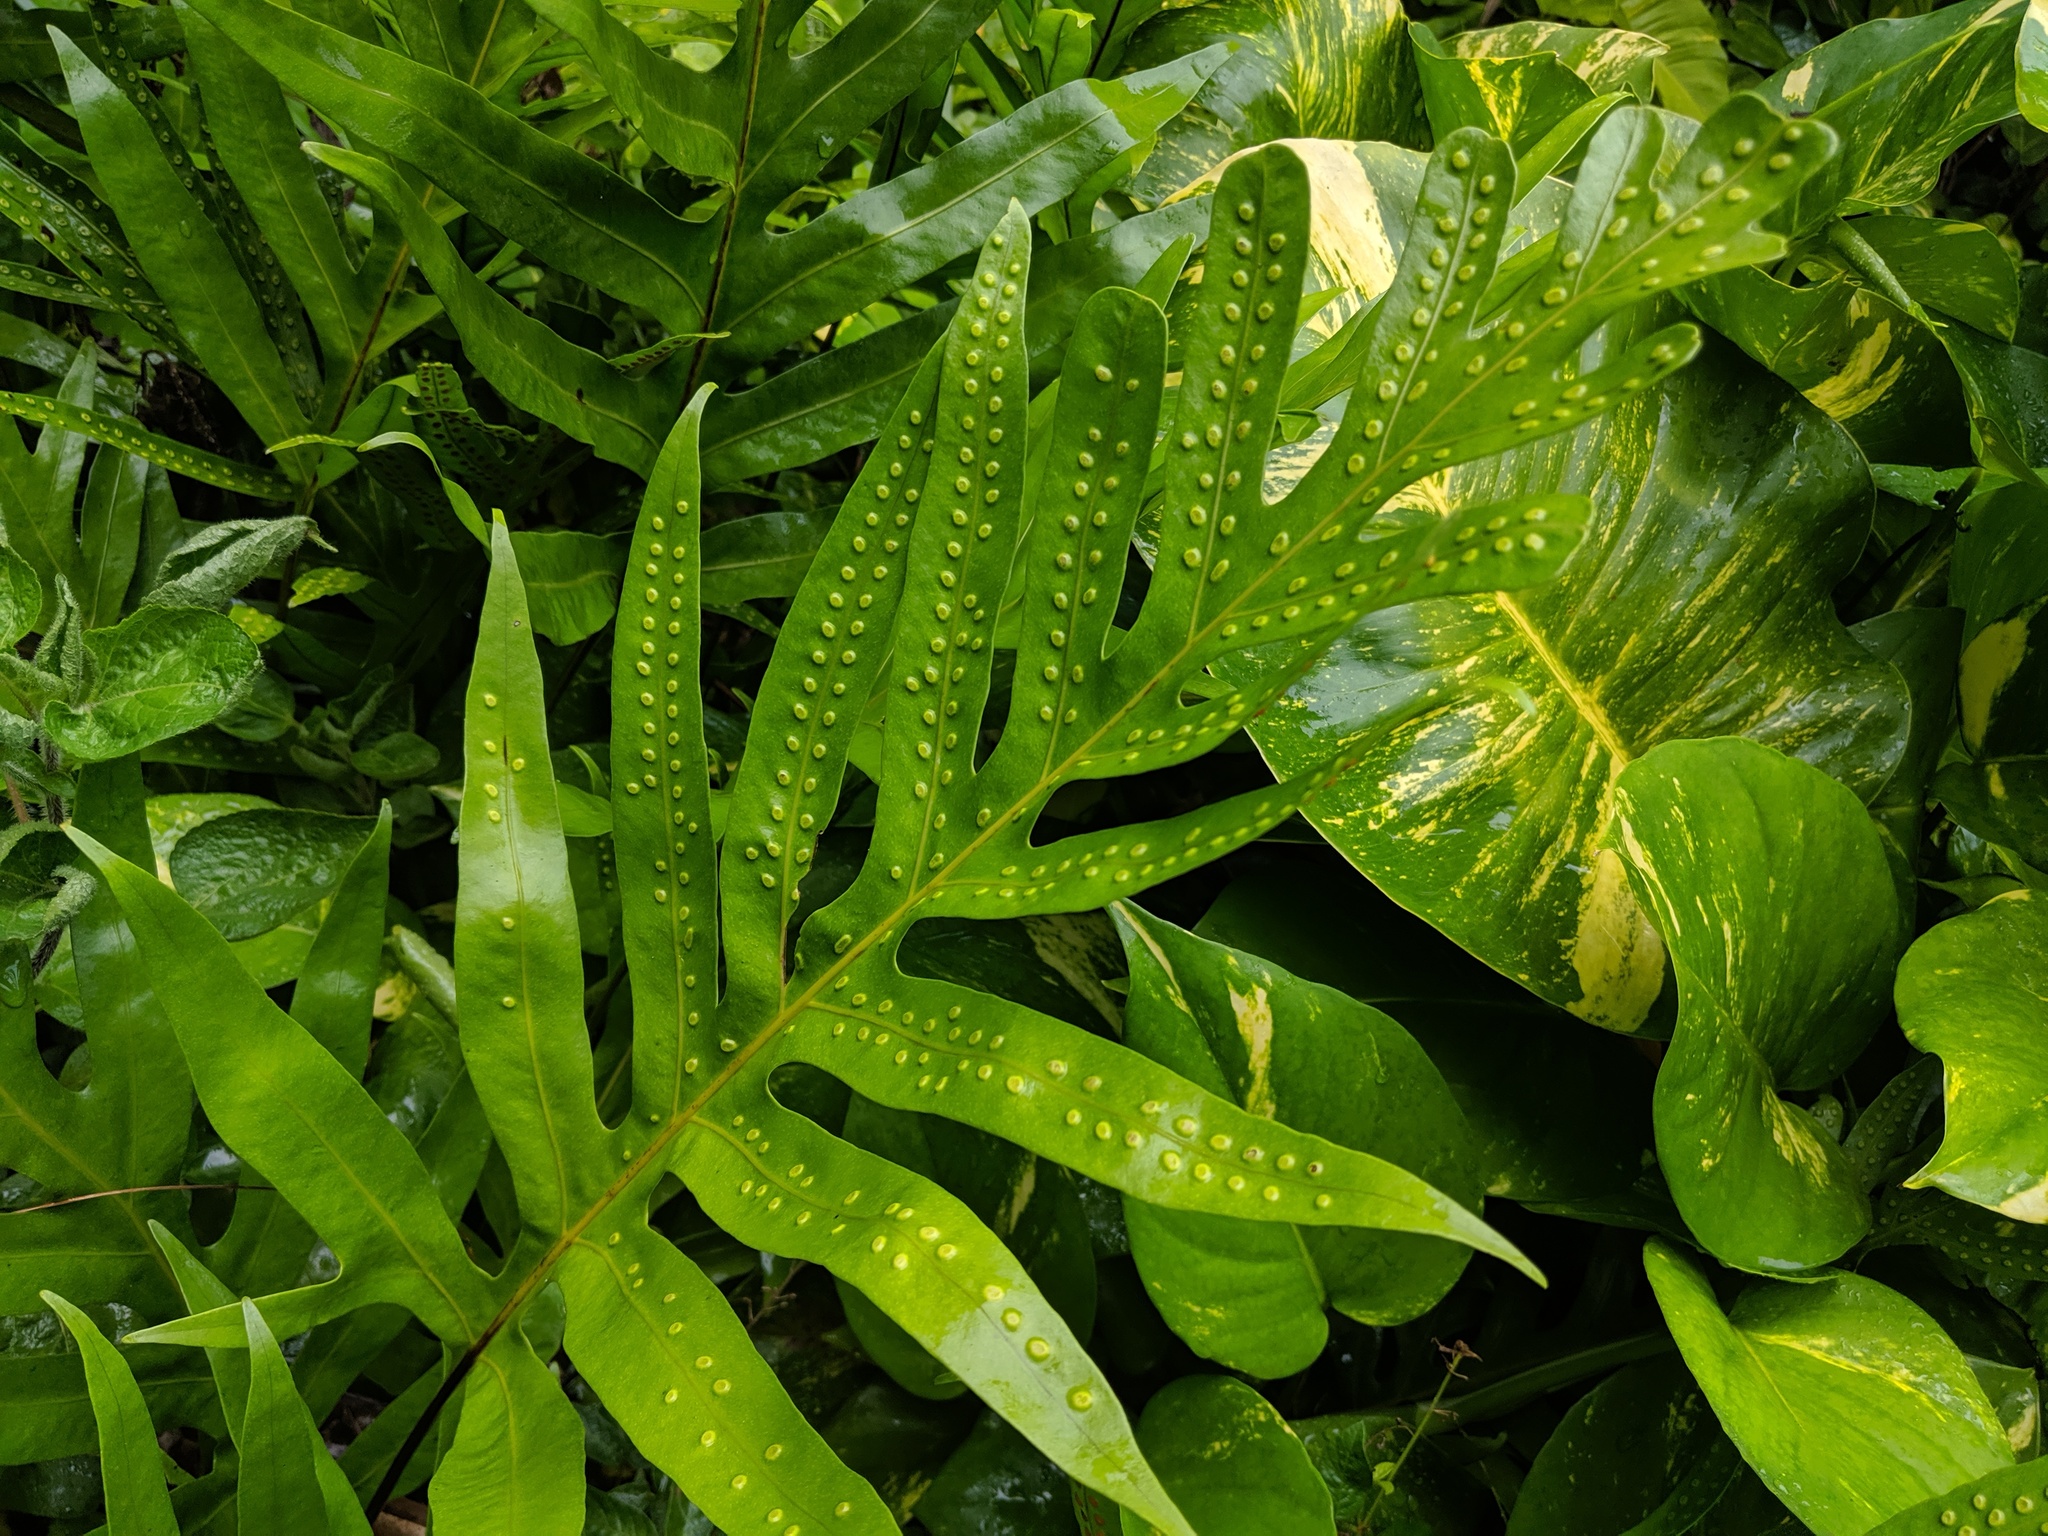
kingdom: Plantae
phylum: Tracheophyta
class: Polypodiopsida
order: Polypodiales
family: Polypodiaceae
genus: Microsorum
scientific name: Microsorum grossum
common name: Musk fern
